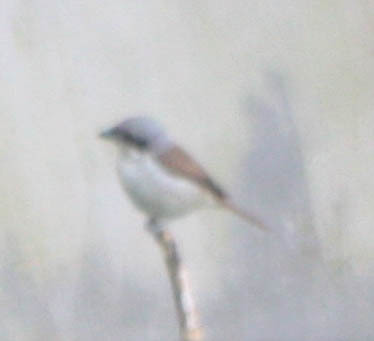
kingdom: Animalia
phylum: Chordata
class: Aves
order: Passeriformes
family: Laniidae
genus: Lanius
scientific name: Lanius tigrinus
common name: Tiger shrike
